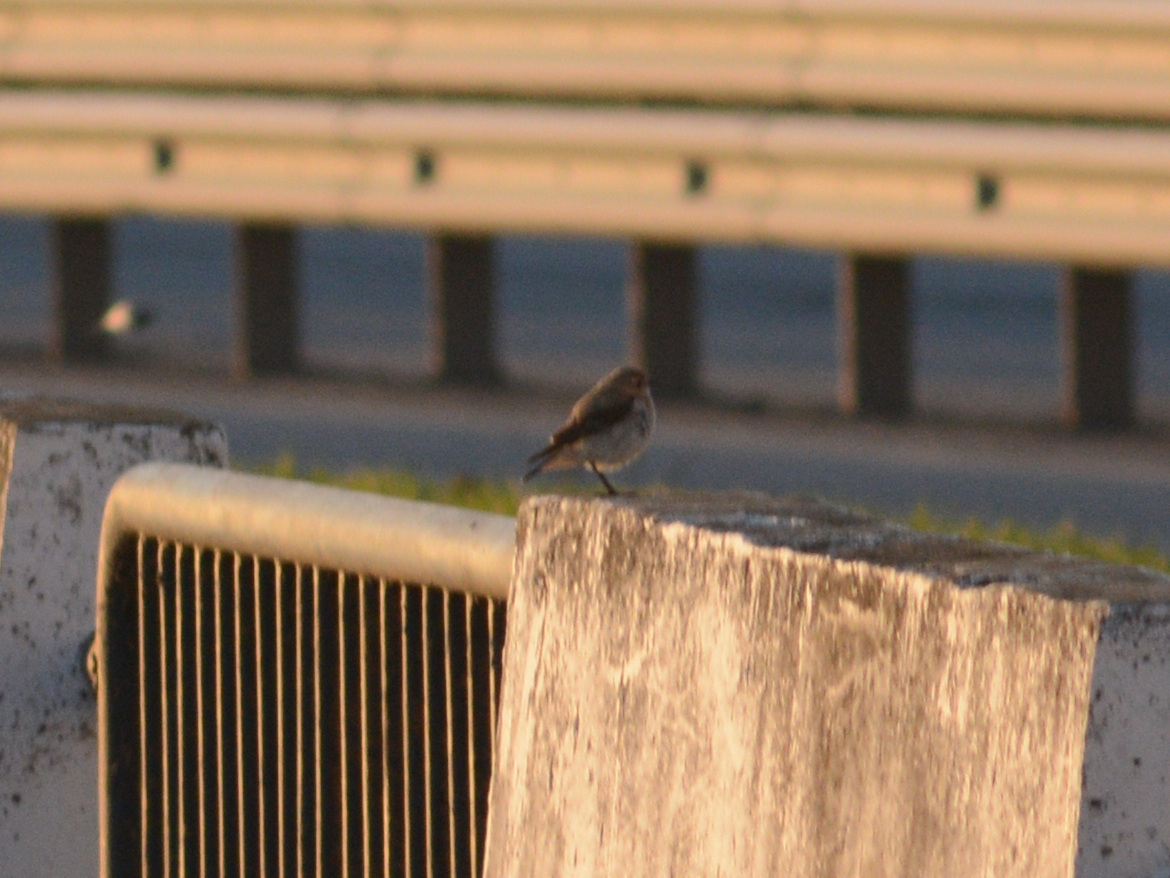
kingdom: Animalia
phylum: Chordata
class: Aves
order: Passeriformes
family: Muscicapidae
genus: Oenanthe
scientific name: Oenanthe oenanthe
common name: Northern wheatear
